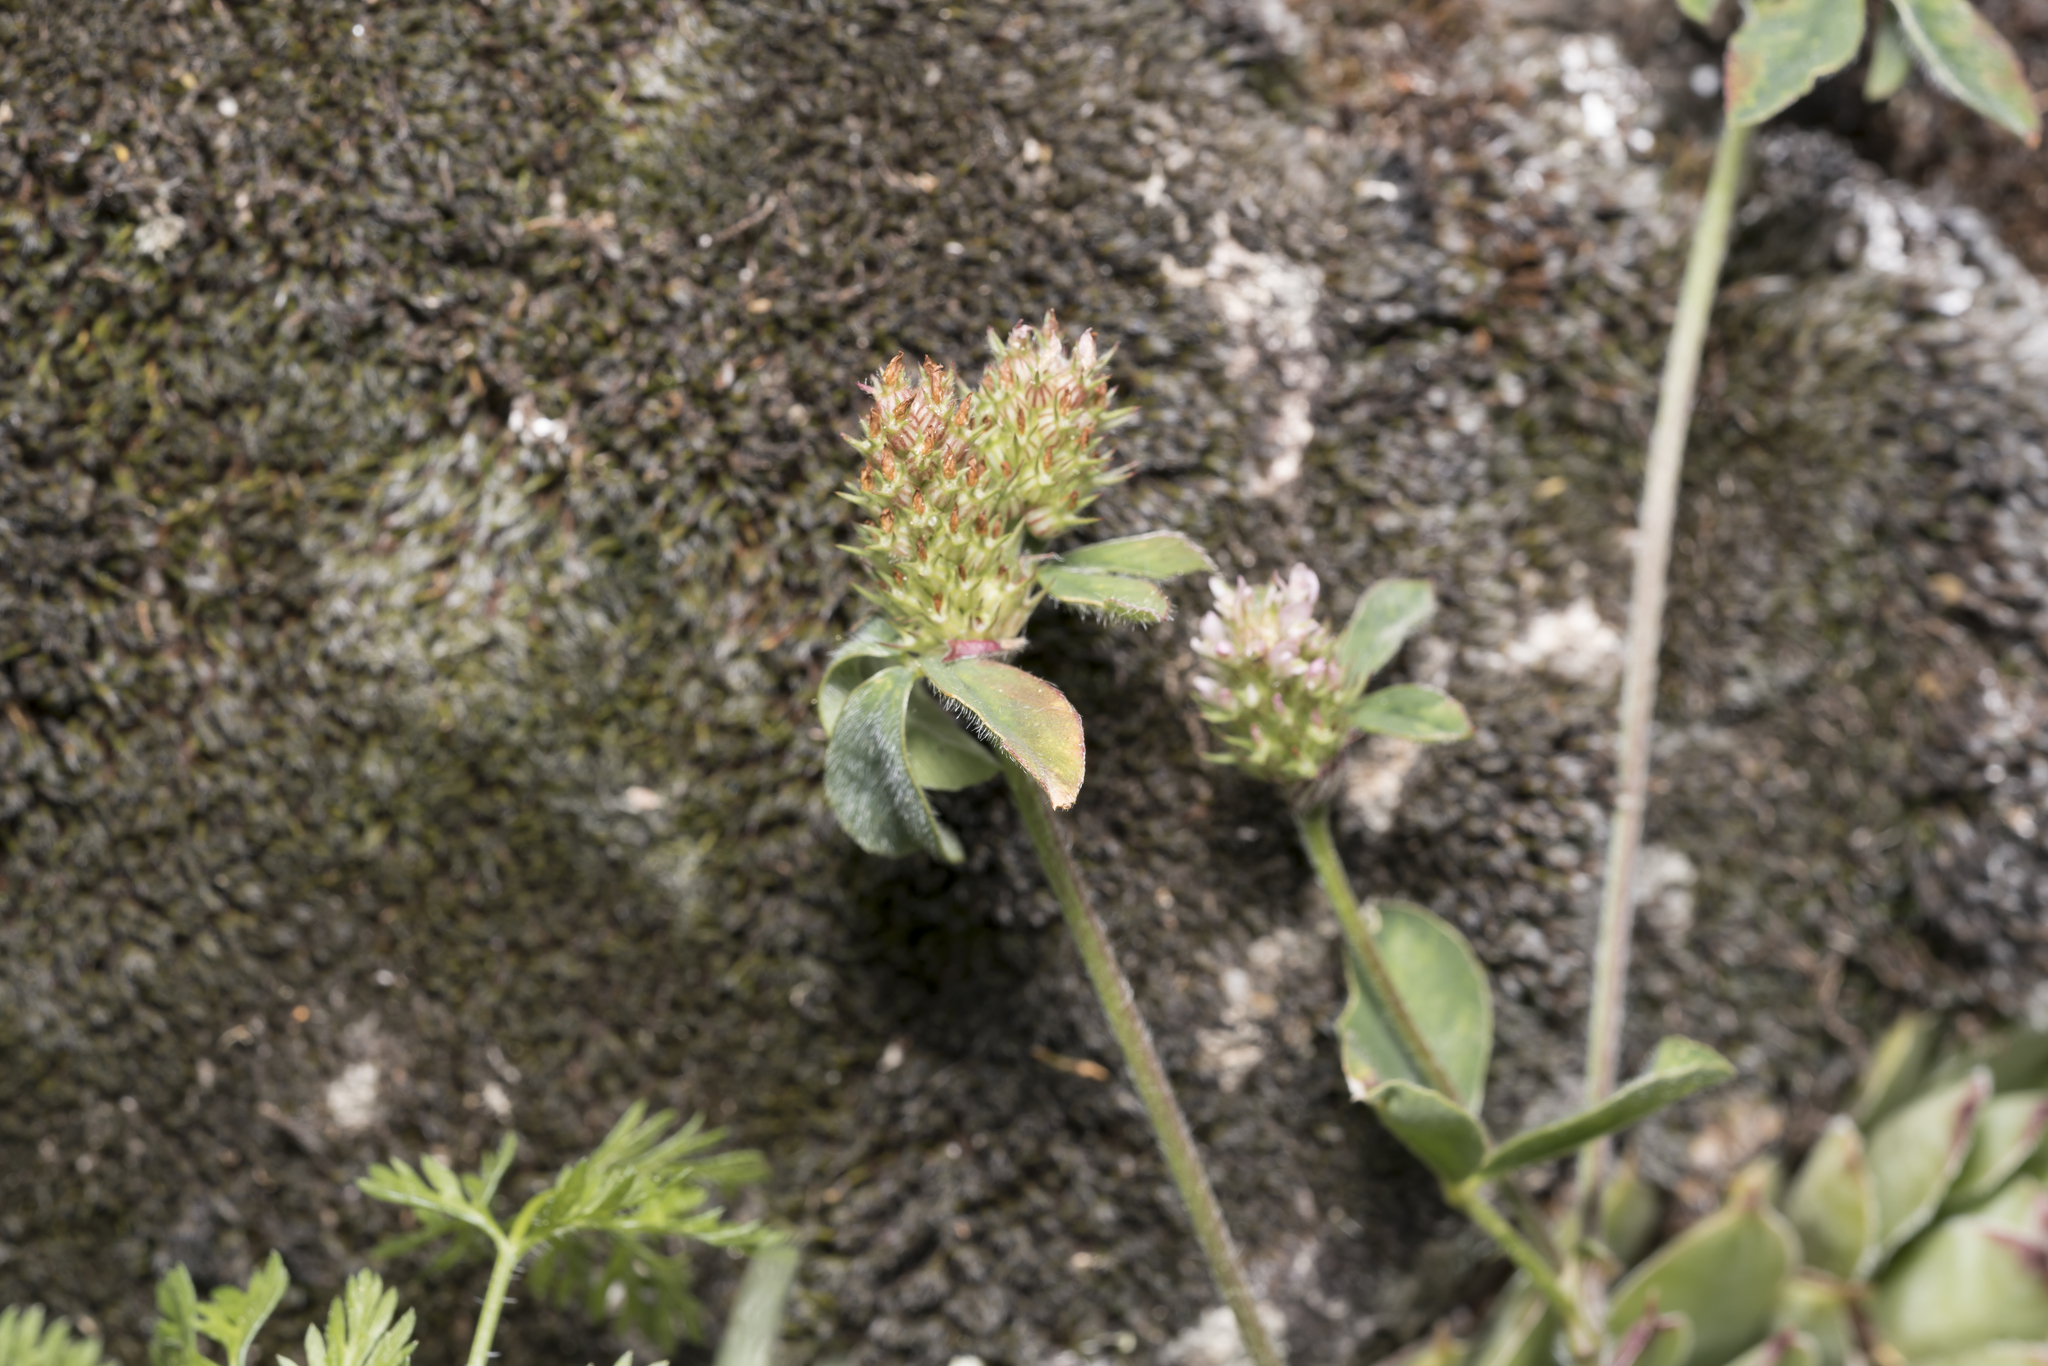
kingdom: Plantae
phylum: Tracheophyta
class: Magnoliopsida
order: Fabales
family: Fabaceae
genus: Trifolium
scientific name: Trifolium striatum
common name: Knotted clover
